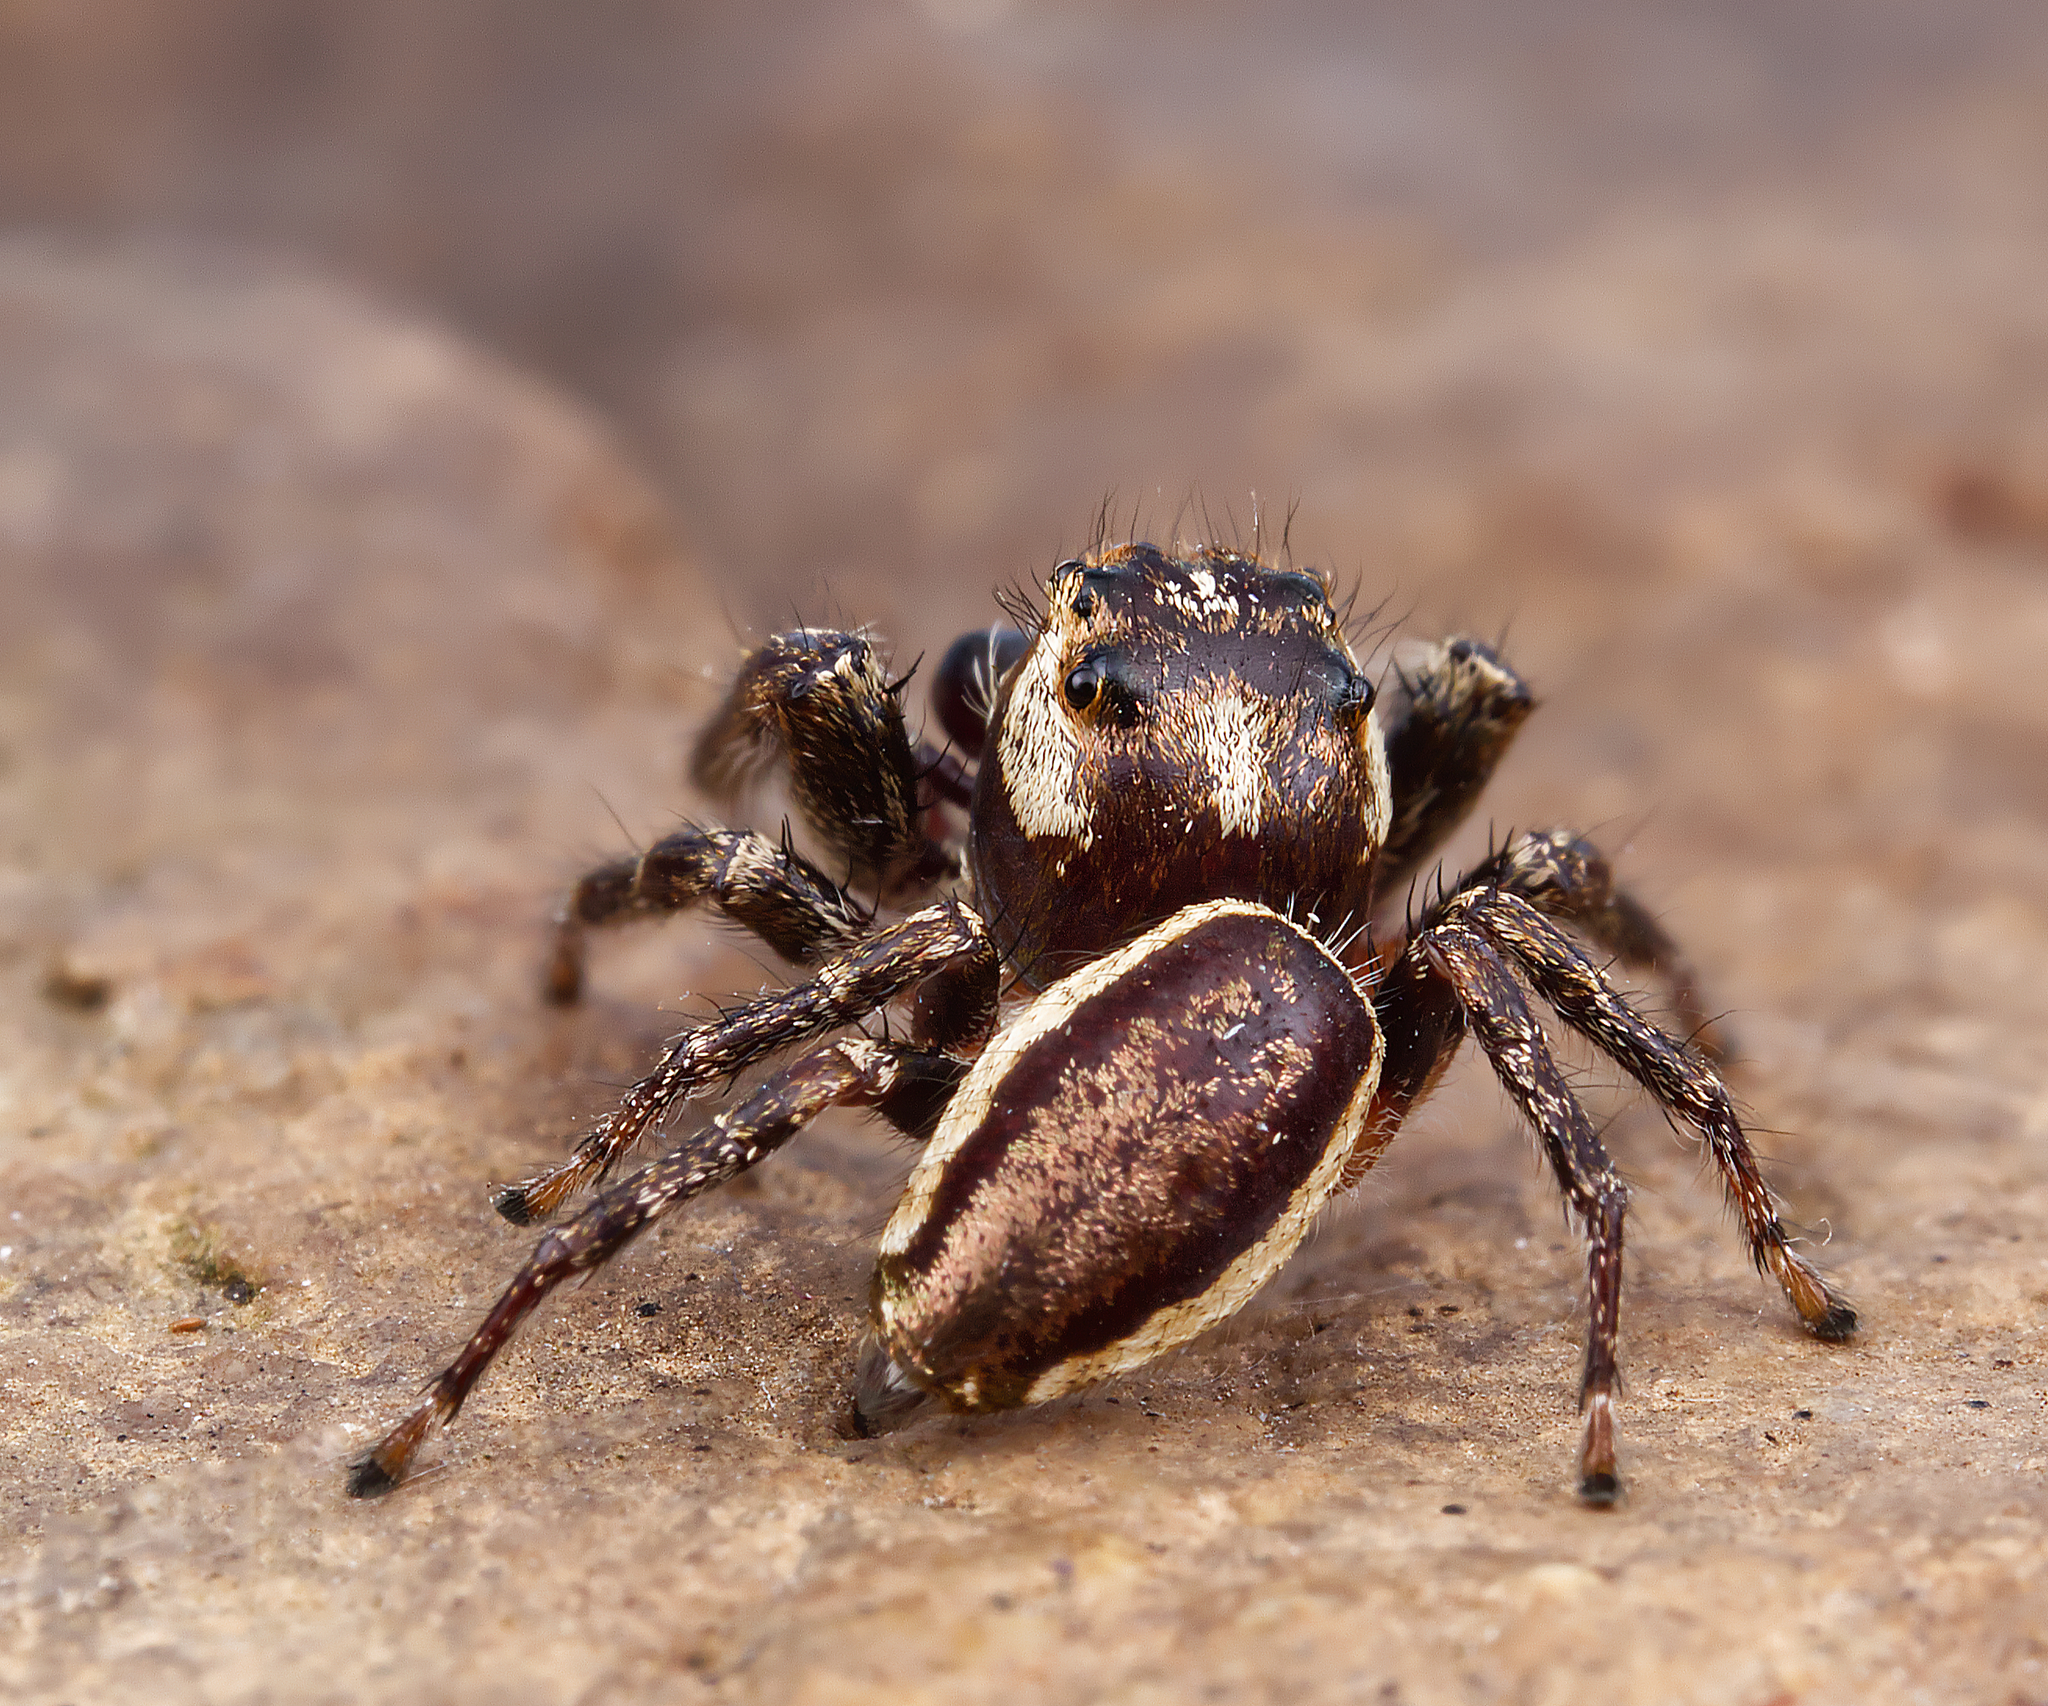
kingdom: Animalia
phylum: Arthropoda
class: Arachnida
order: Araneae
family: Salticidae
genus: Eris
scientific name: Eris militaris
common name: Bronze jumper
